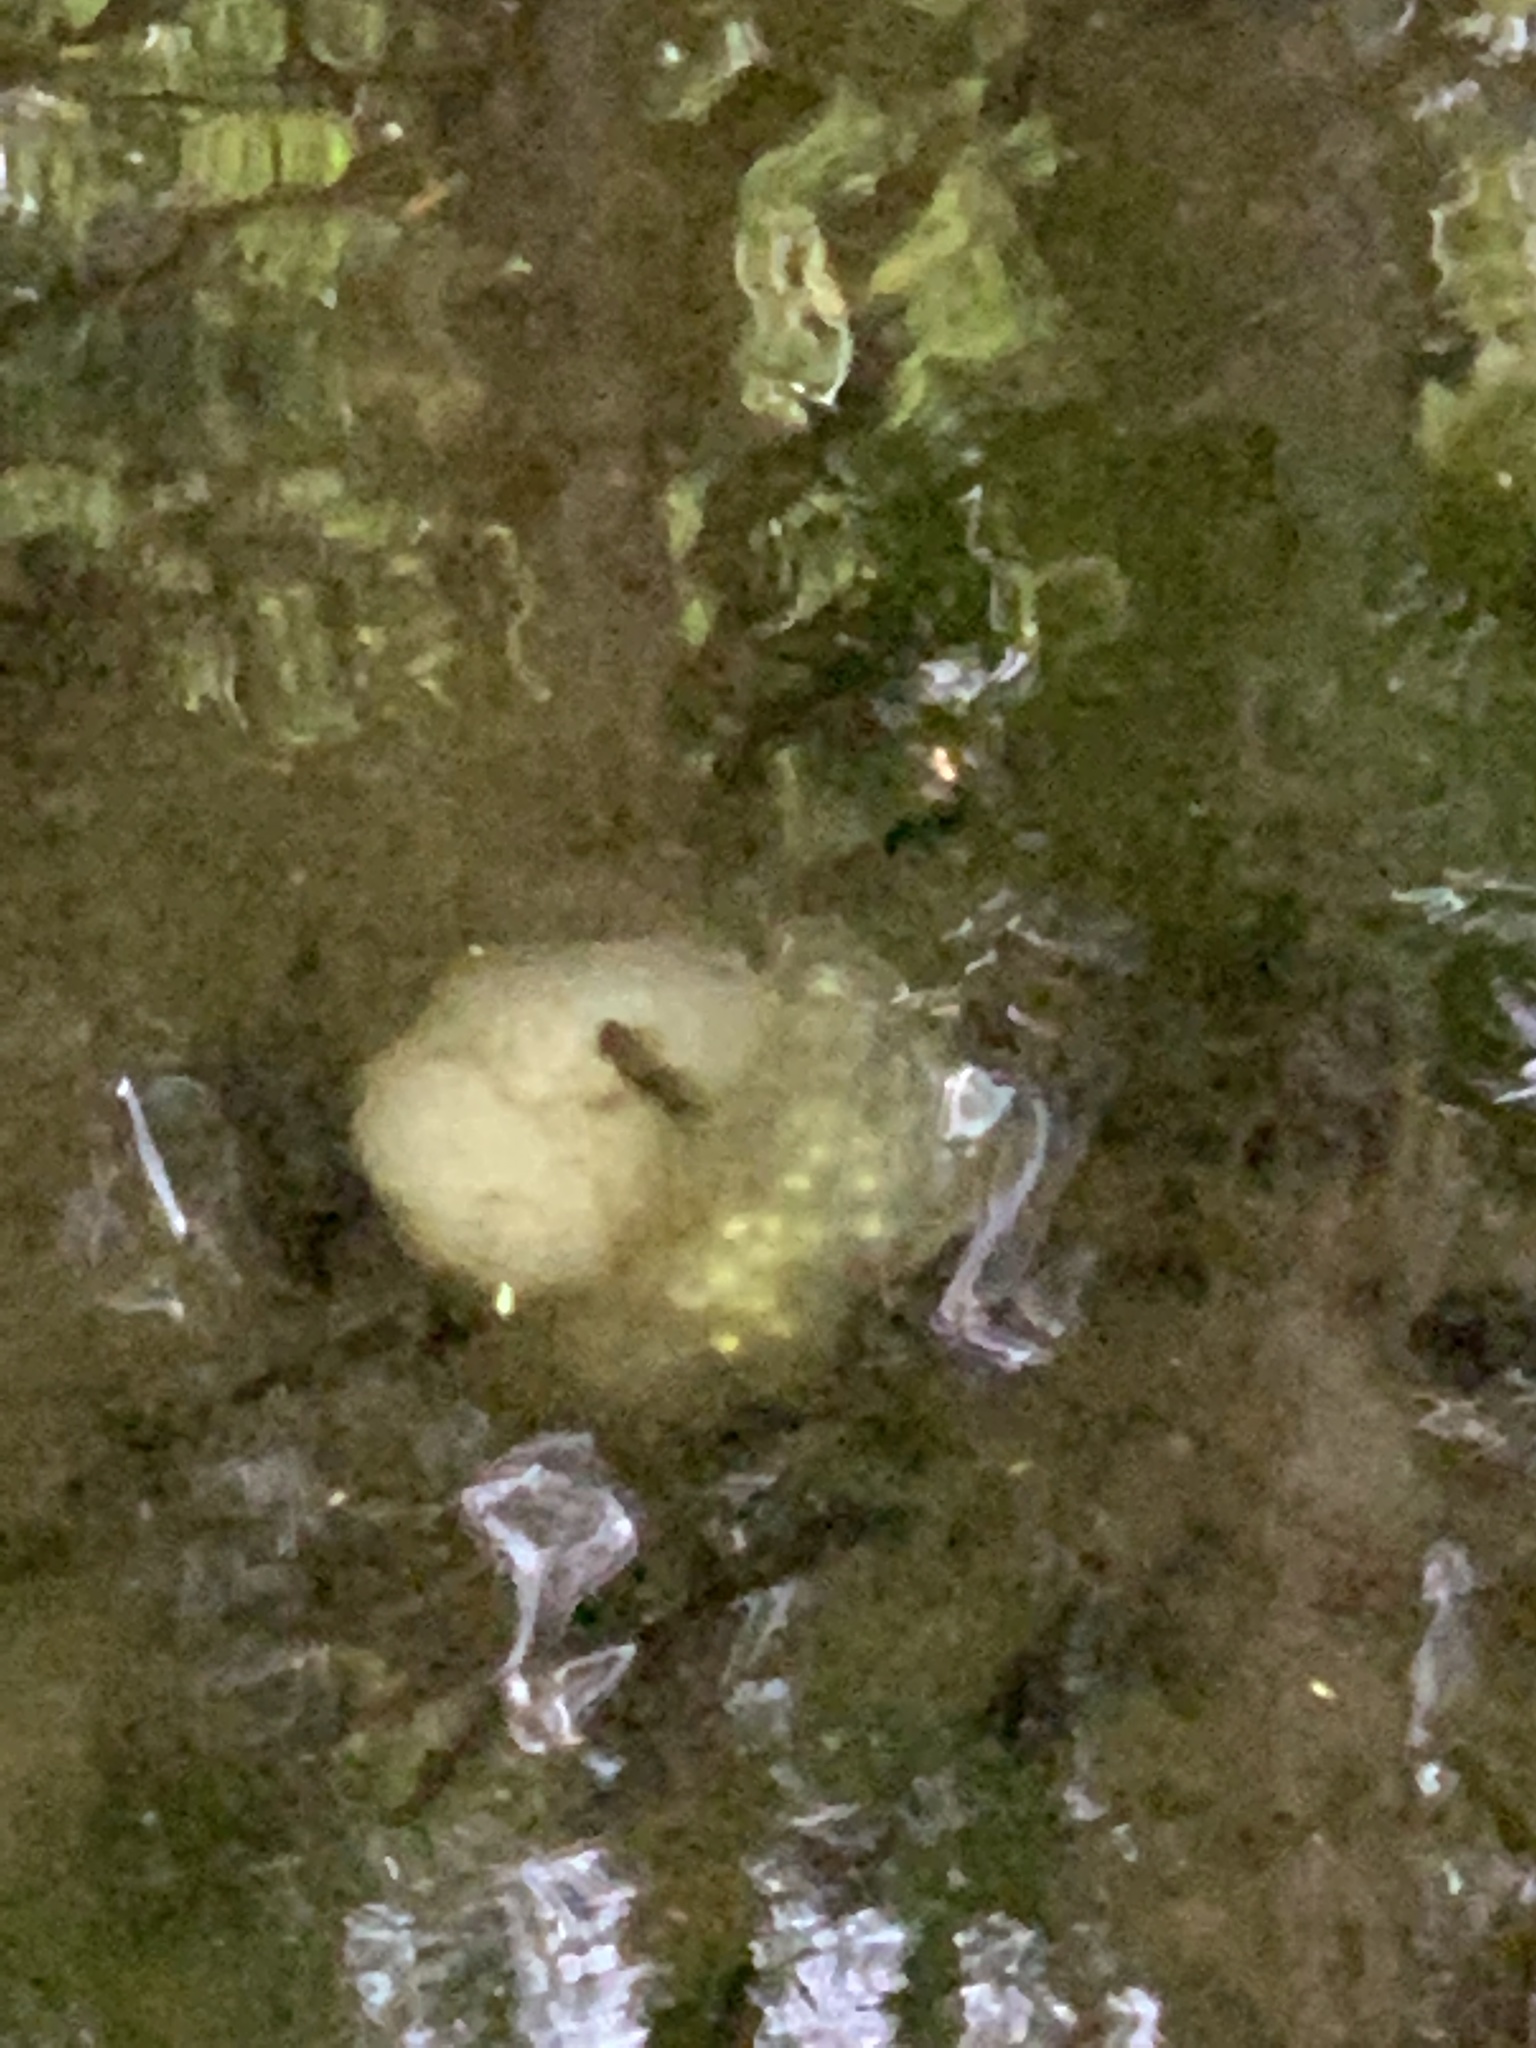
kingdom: Animalia
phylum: Chordata
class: Amphibia
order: Caudata
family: Ambystomatidae
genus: Ambystoma
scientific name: Ambystoma maculatum
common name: Spotted salamander
